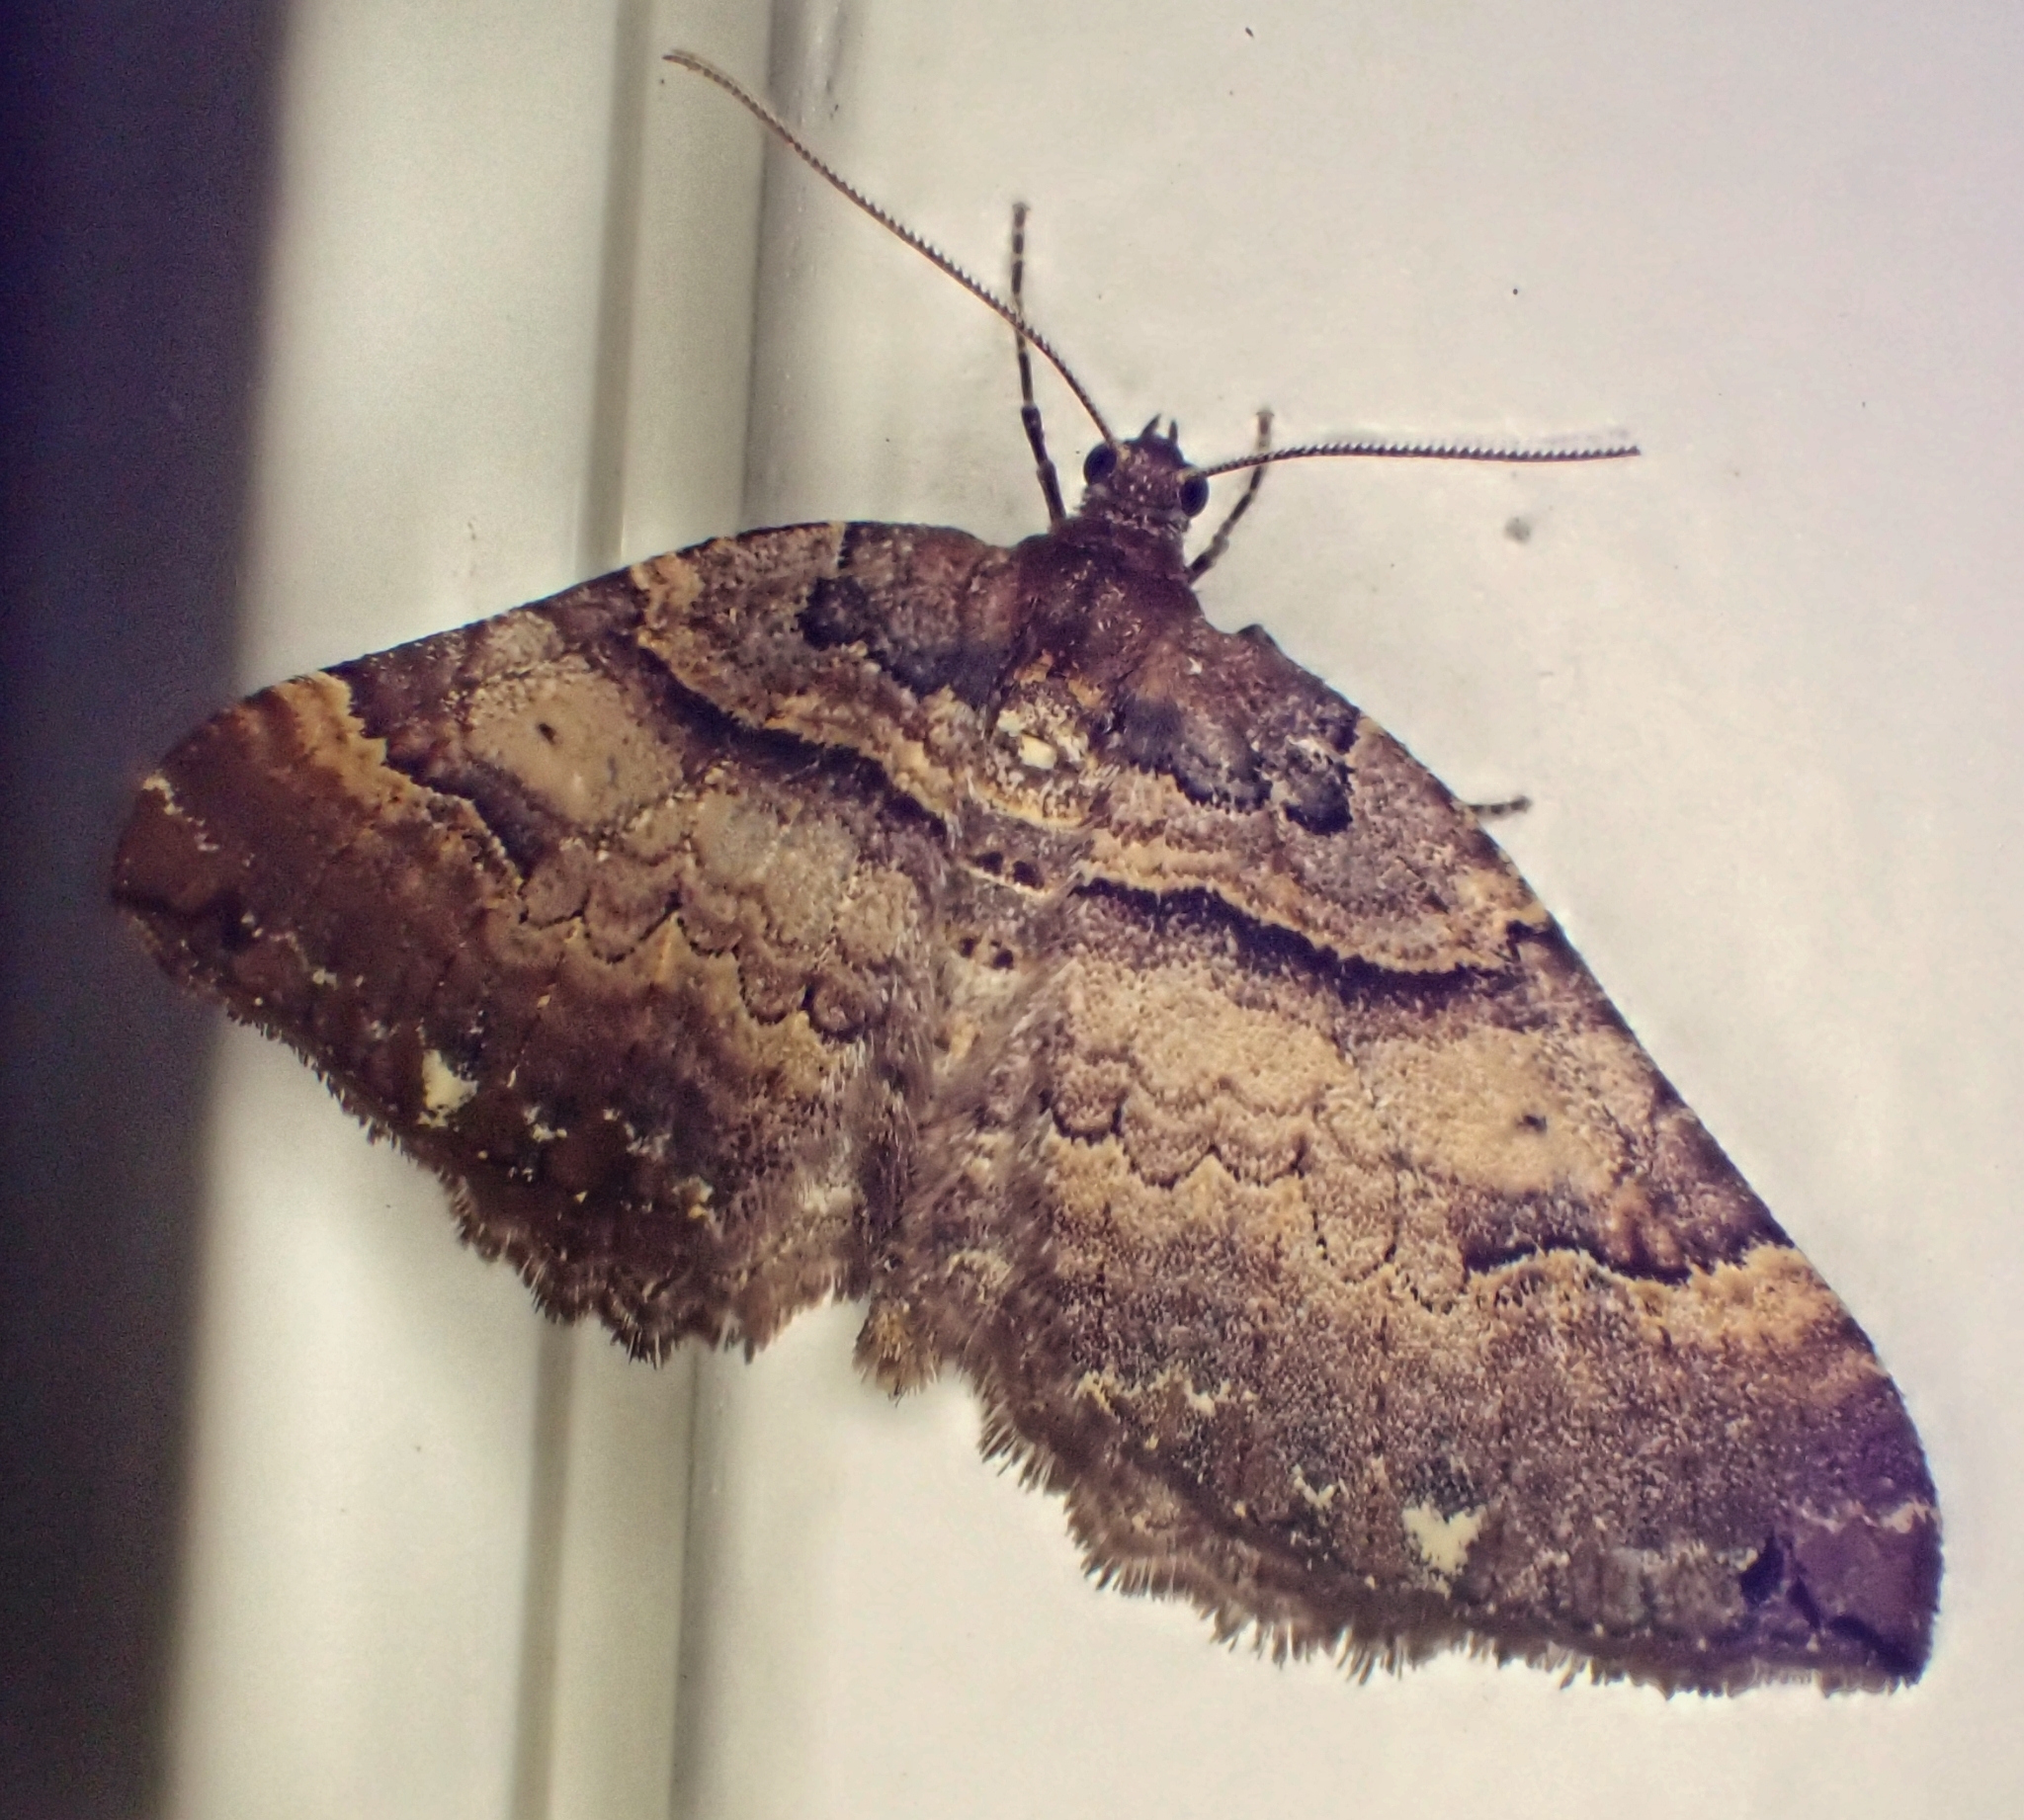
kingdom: Animalia
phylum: Arthropoda
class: Insecta
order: Lepidoptera
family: Geometridae
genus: Anticlea
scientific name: Anticlea badiata
